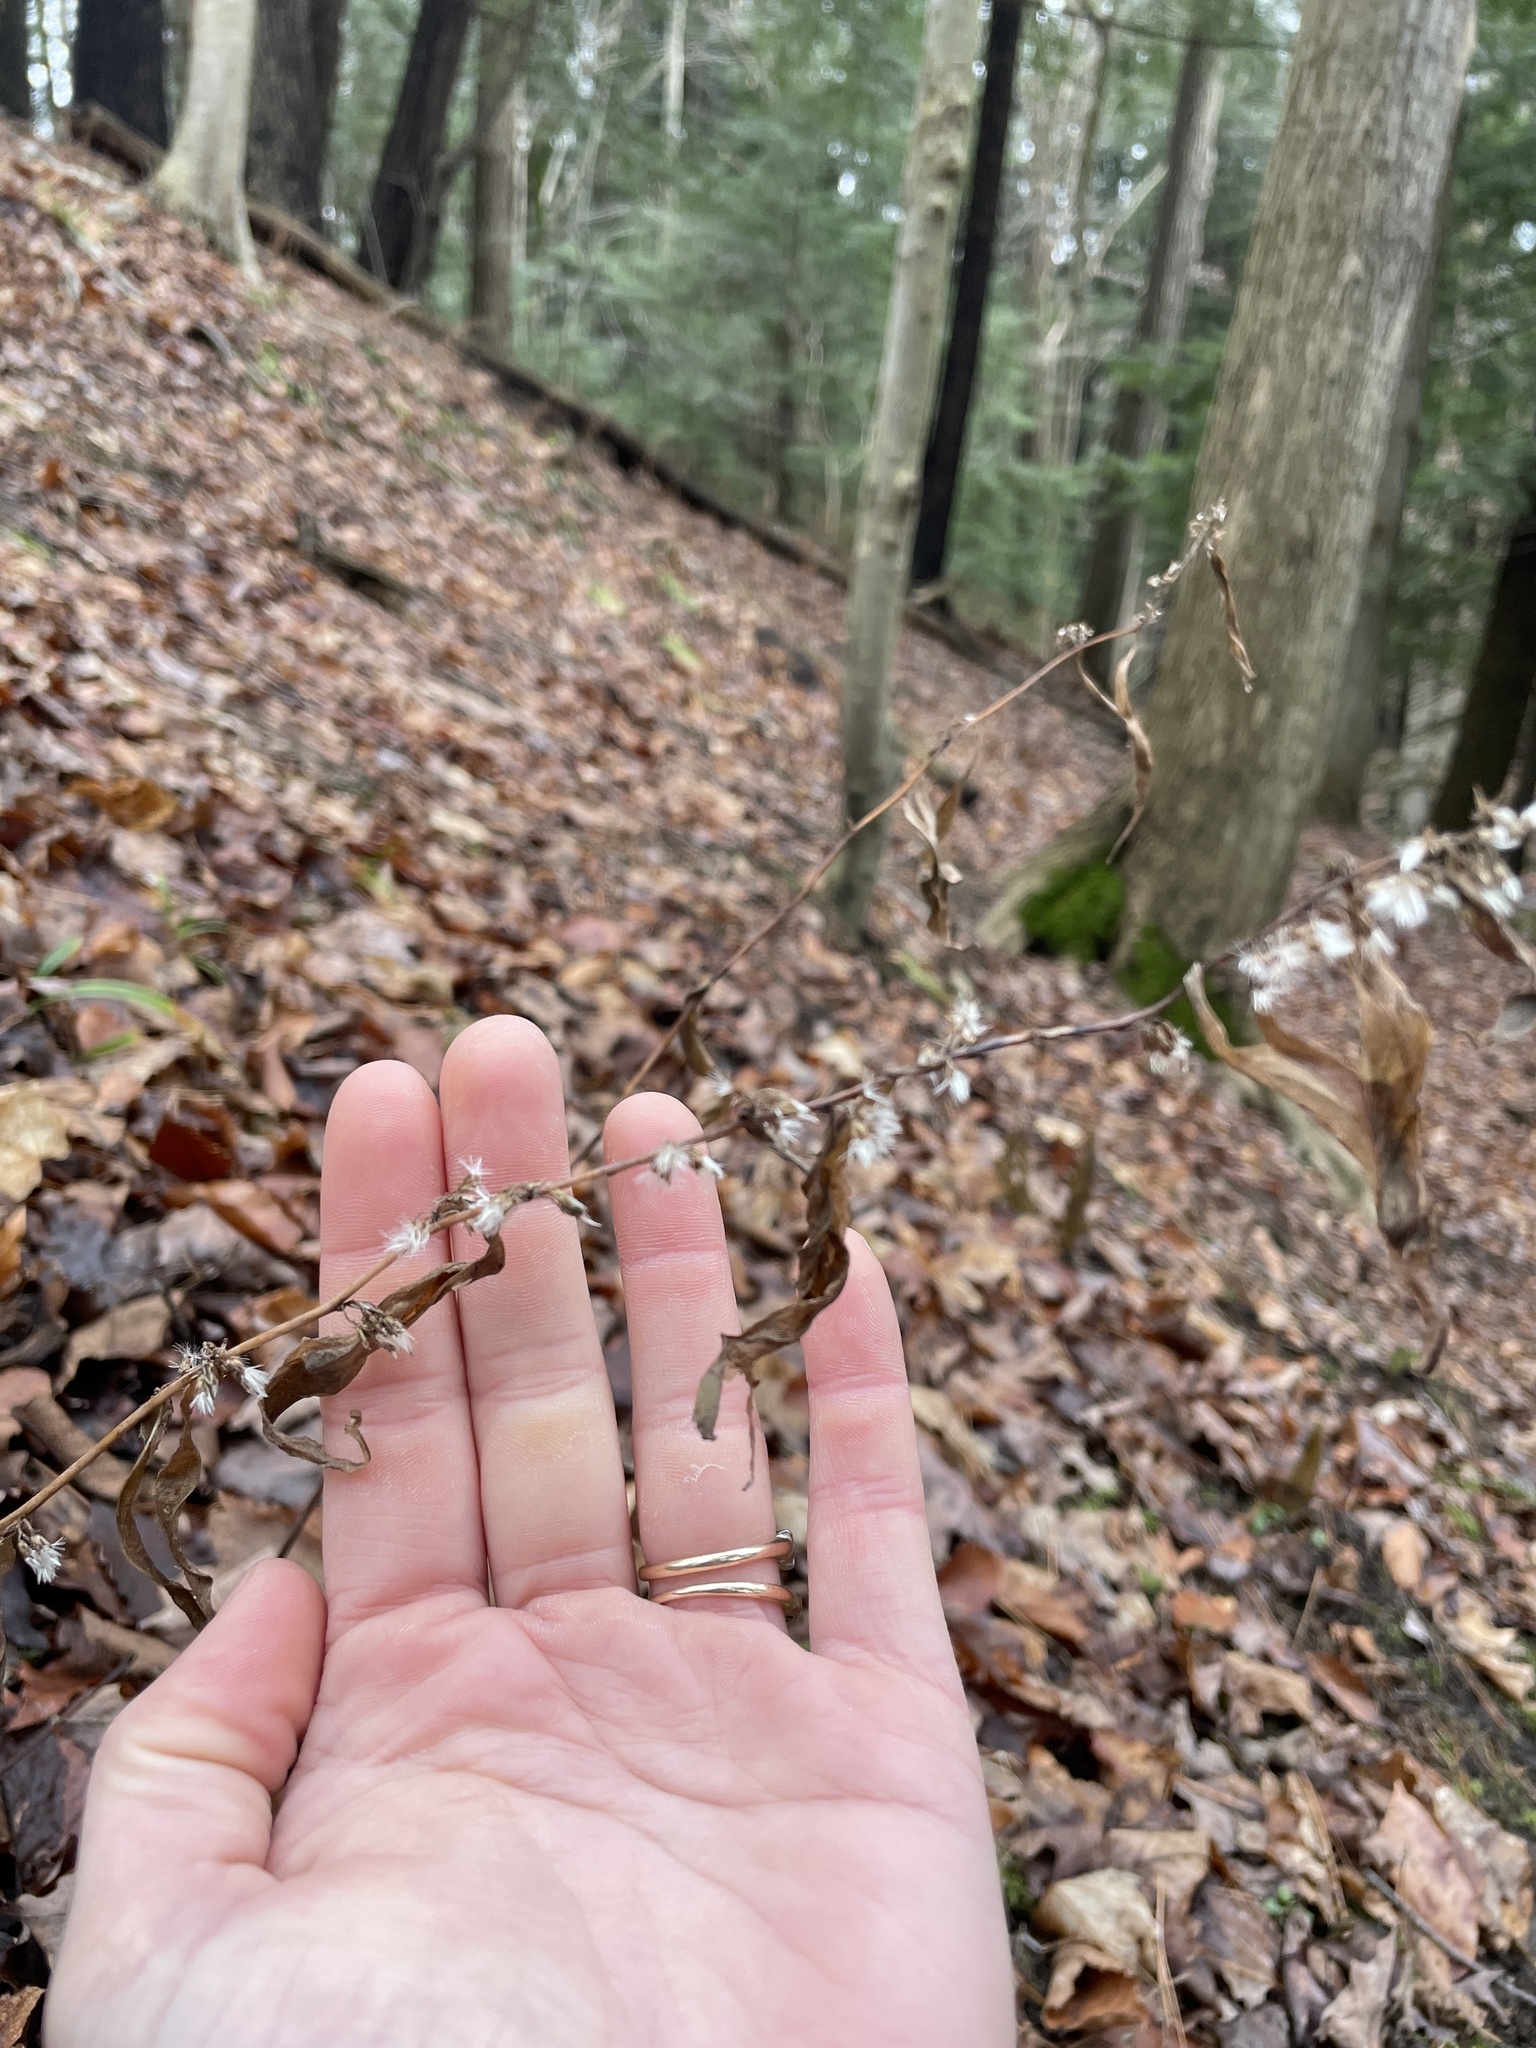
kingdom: Plantae
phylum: Tracheophyta
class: Magnoliopsida
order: Asterales
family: Asteraceae
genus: Solidago
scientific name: Solidago caesia
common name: Woodland goldenrod
